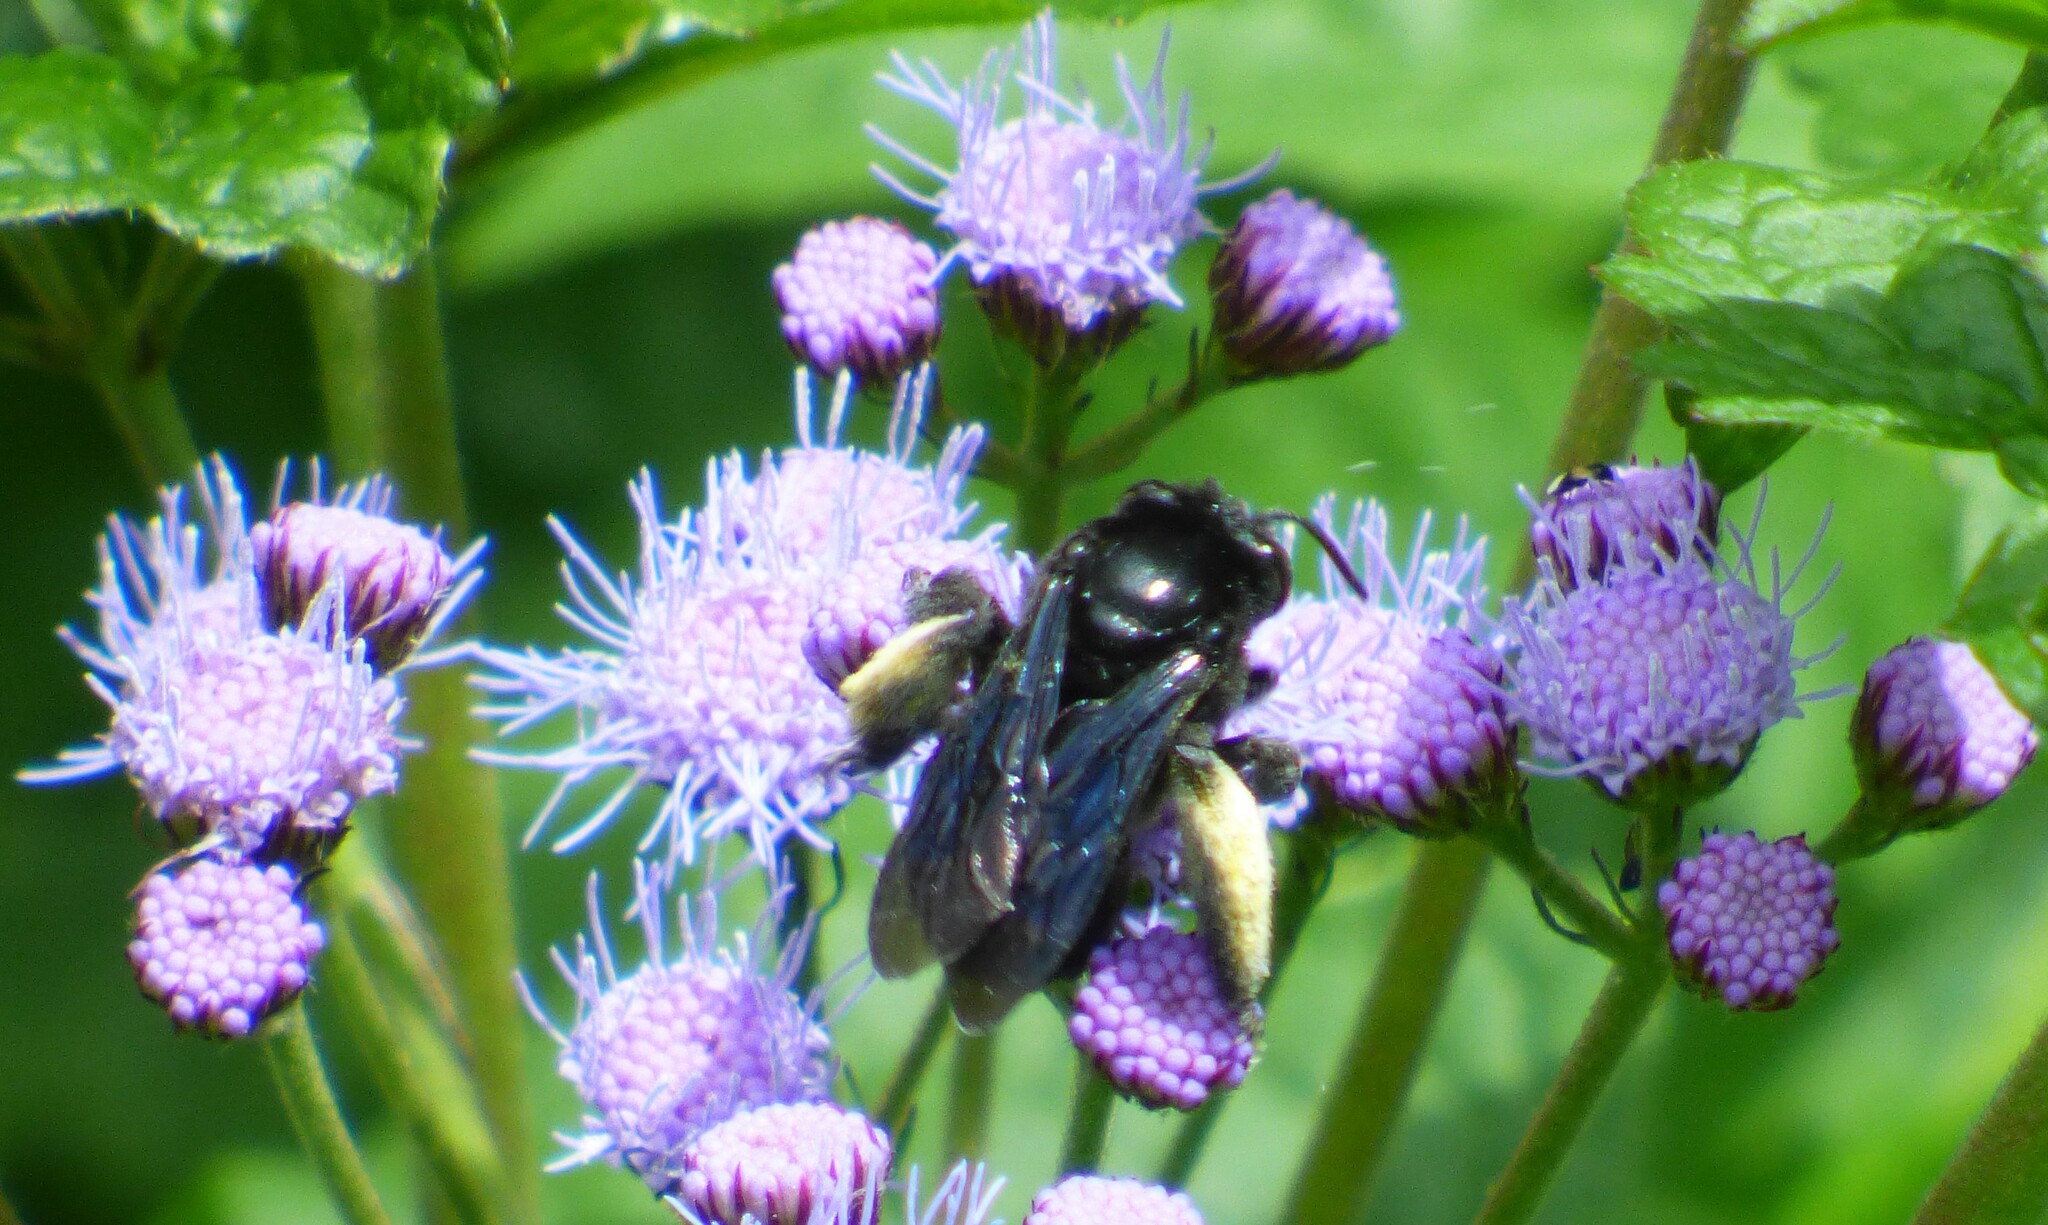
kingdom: Animalia
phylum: Arthropoda
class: Insecta
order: Hymenoptera
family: Apidae
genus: Melissodes
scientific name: Melissodes bimaculatus
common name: Two-spotted long-horned bee
